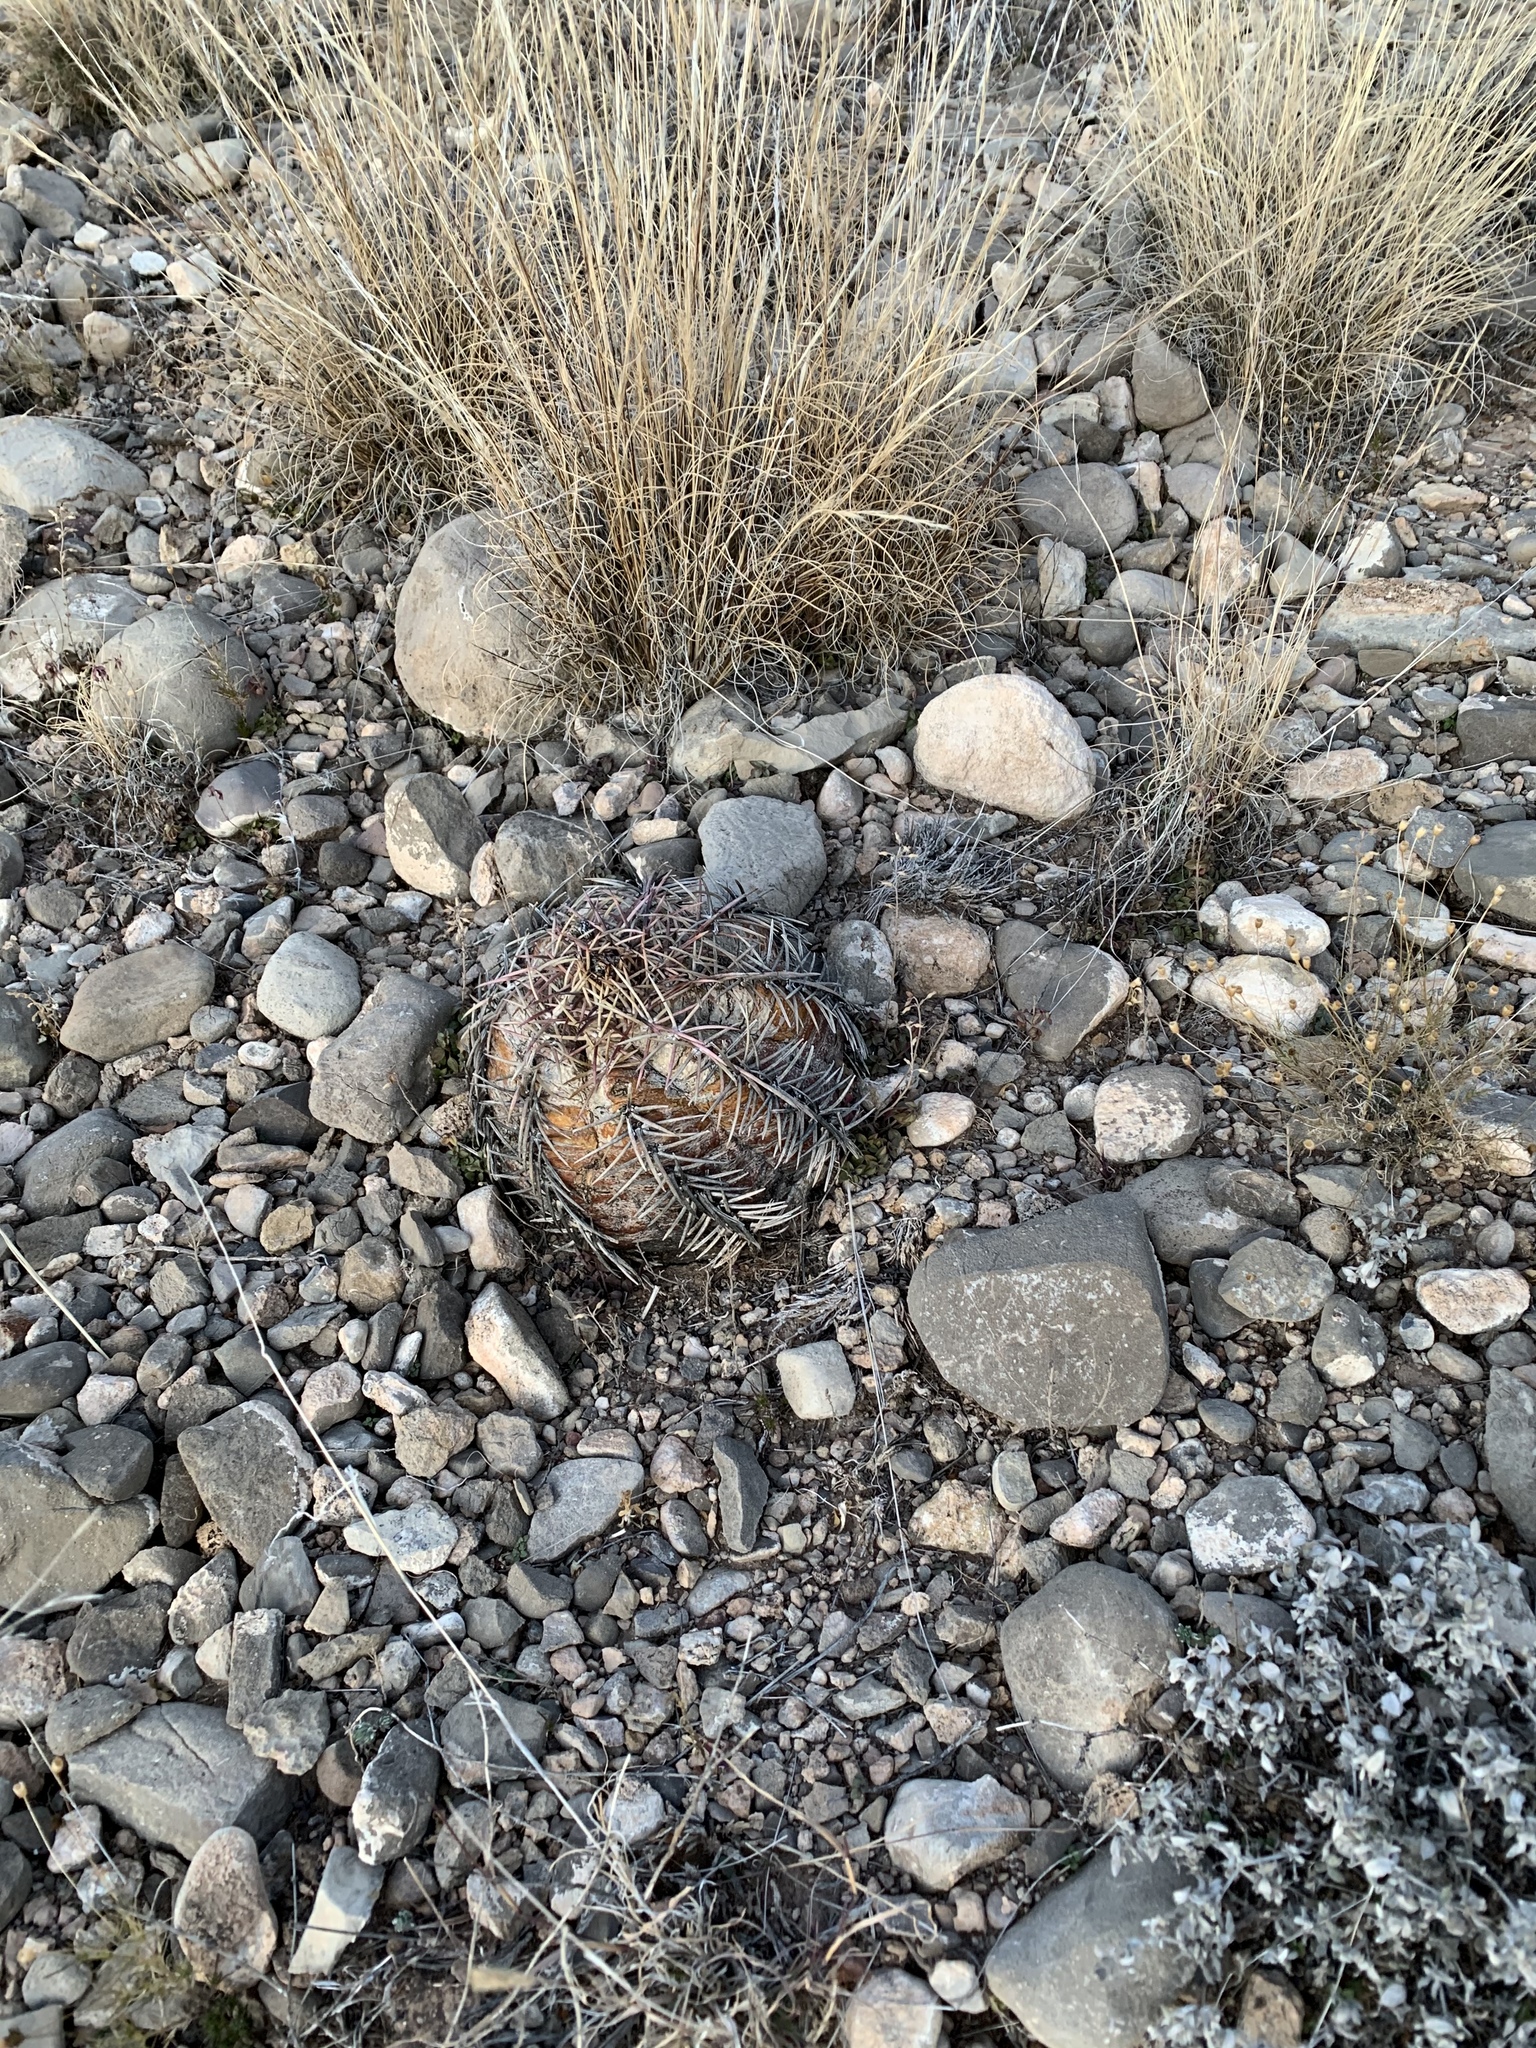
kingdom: Plantae
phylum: Tracheophyta
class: Magnoliopsida
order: Caryophyllales
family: Cactaceae
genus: Echinocactus
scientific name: Echinocactus horizonthalonius
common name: Devilshead
